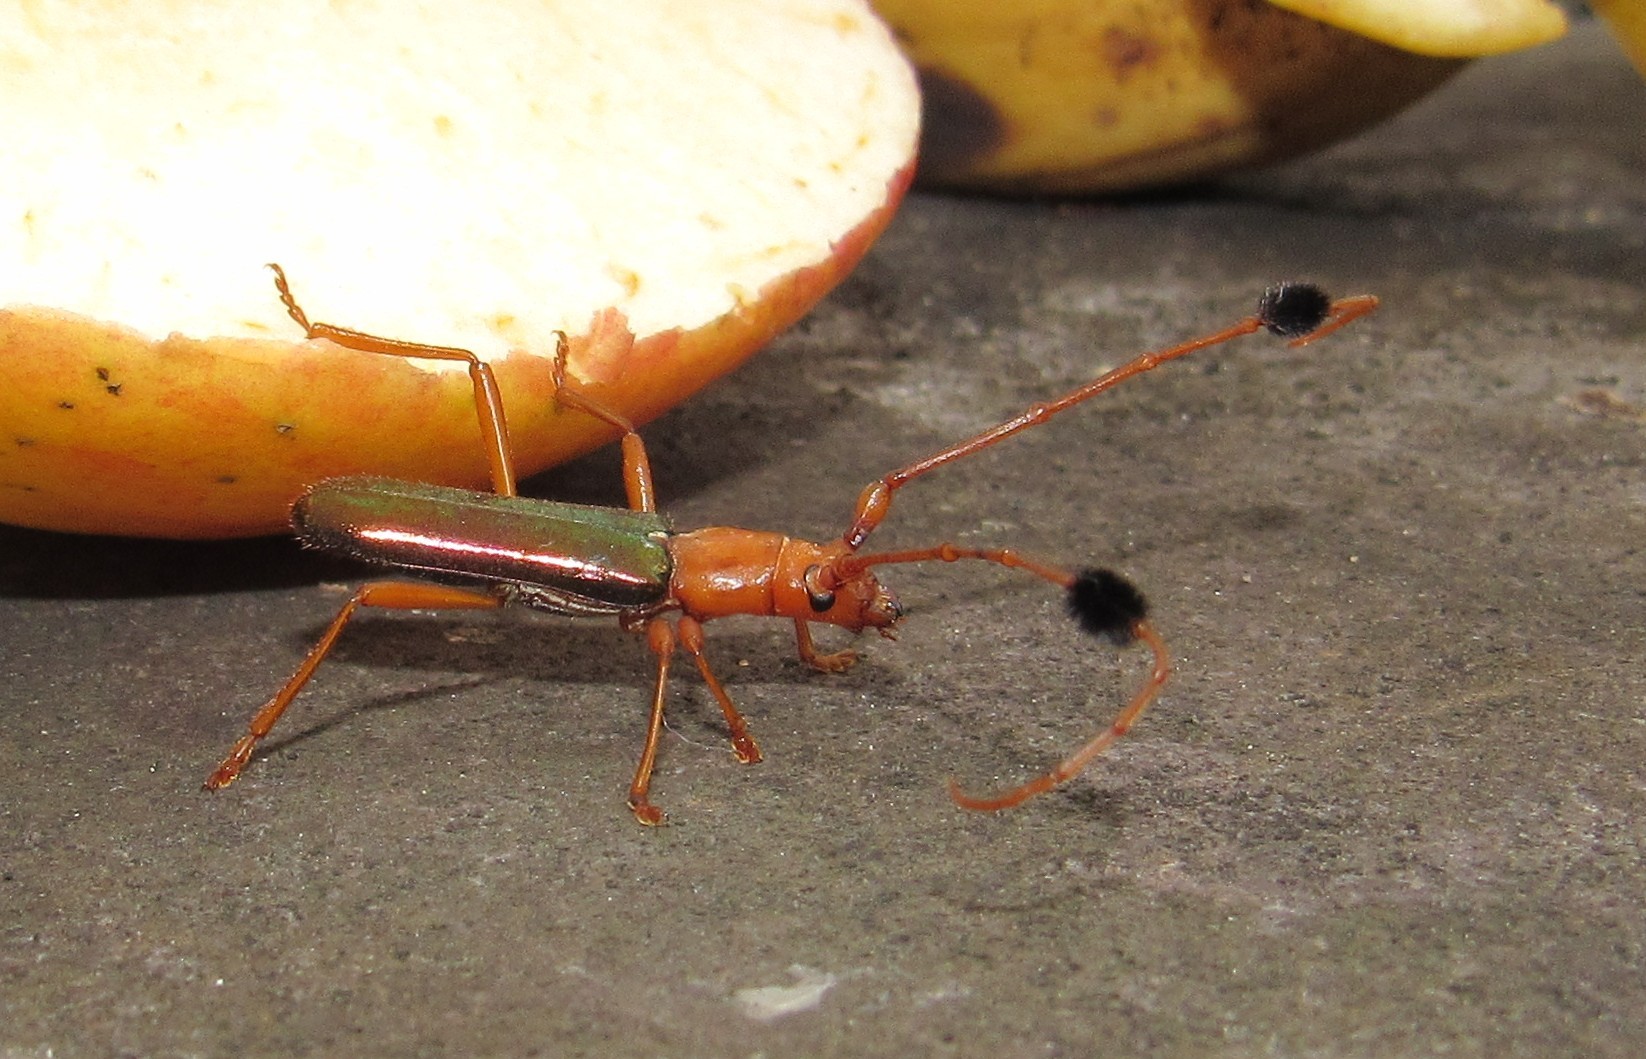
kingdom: Animalia
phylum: Arthropoda
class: Insecta
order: Coleoptera
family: Cerambycidae
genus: Compsocerus
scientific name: Compsocerus violaceus
